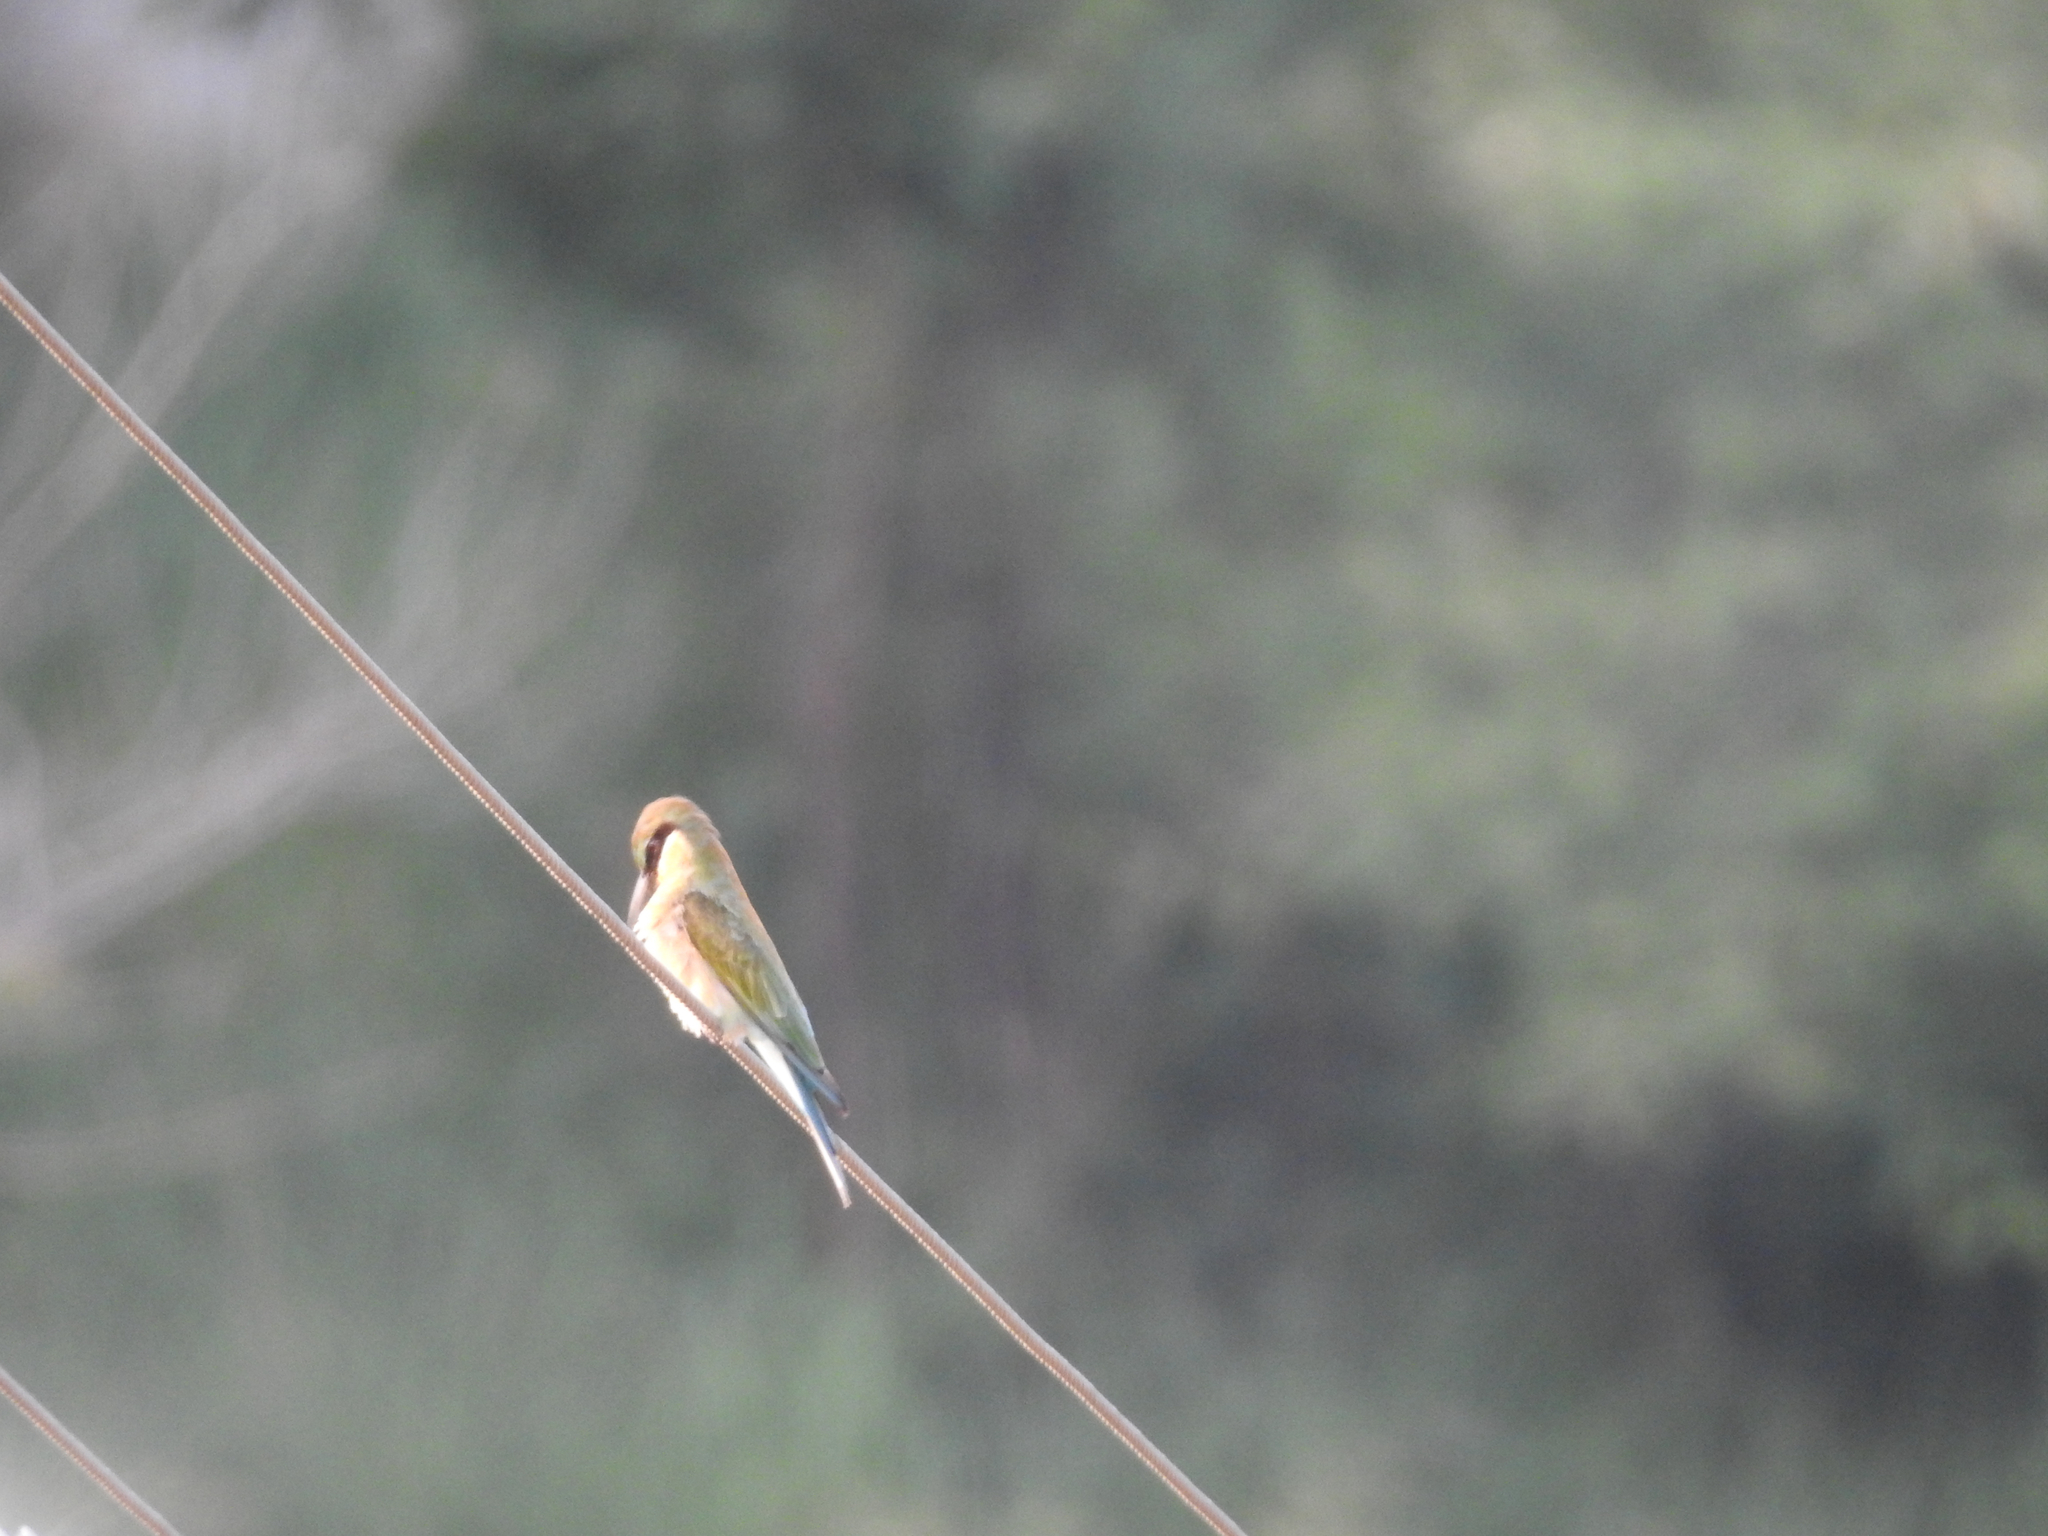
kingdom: Animalia
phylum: Chordata
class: Aves
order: Coraciiformes
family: Meropidae
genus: Merops
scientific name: Merops philippinus
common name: Blue-tailed bee-eater
